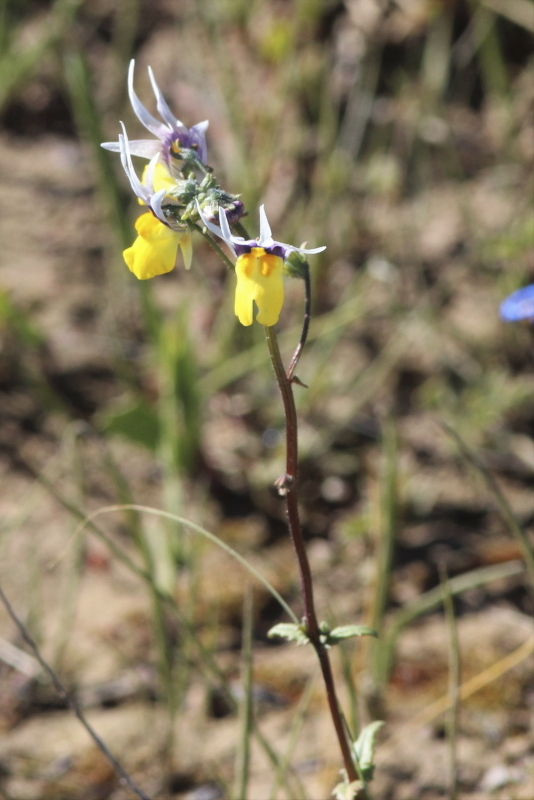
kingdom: Plantae
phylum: Tracheophyta
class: Magnoliopsida
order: Lamiales
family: Scrophulariaceae
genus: Nemesia
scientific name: Nemesia cheiranthus
